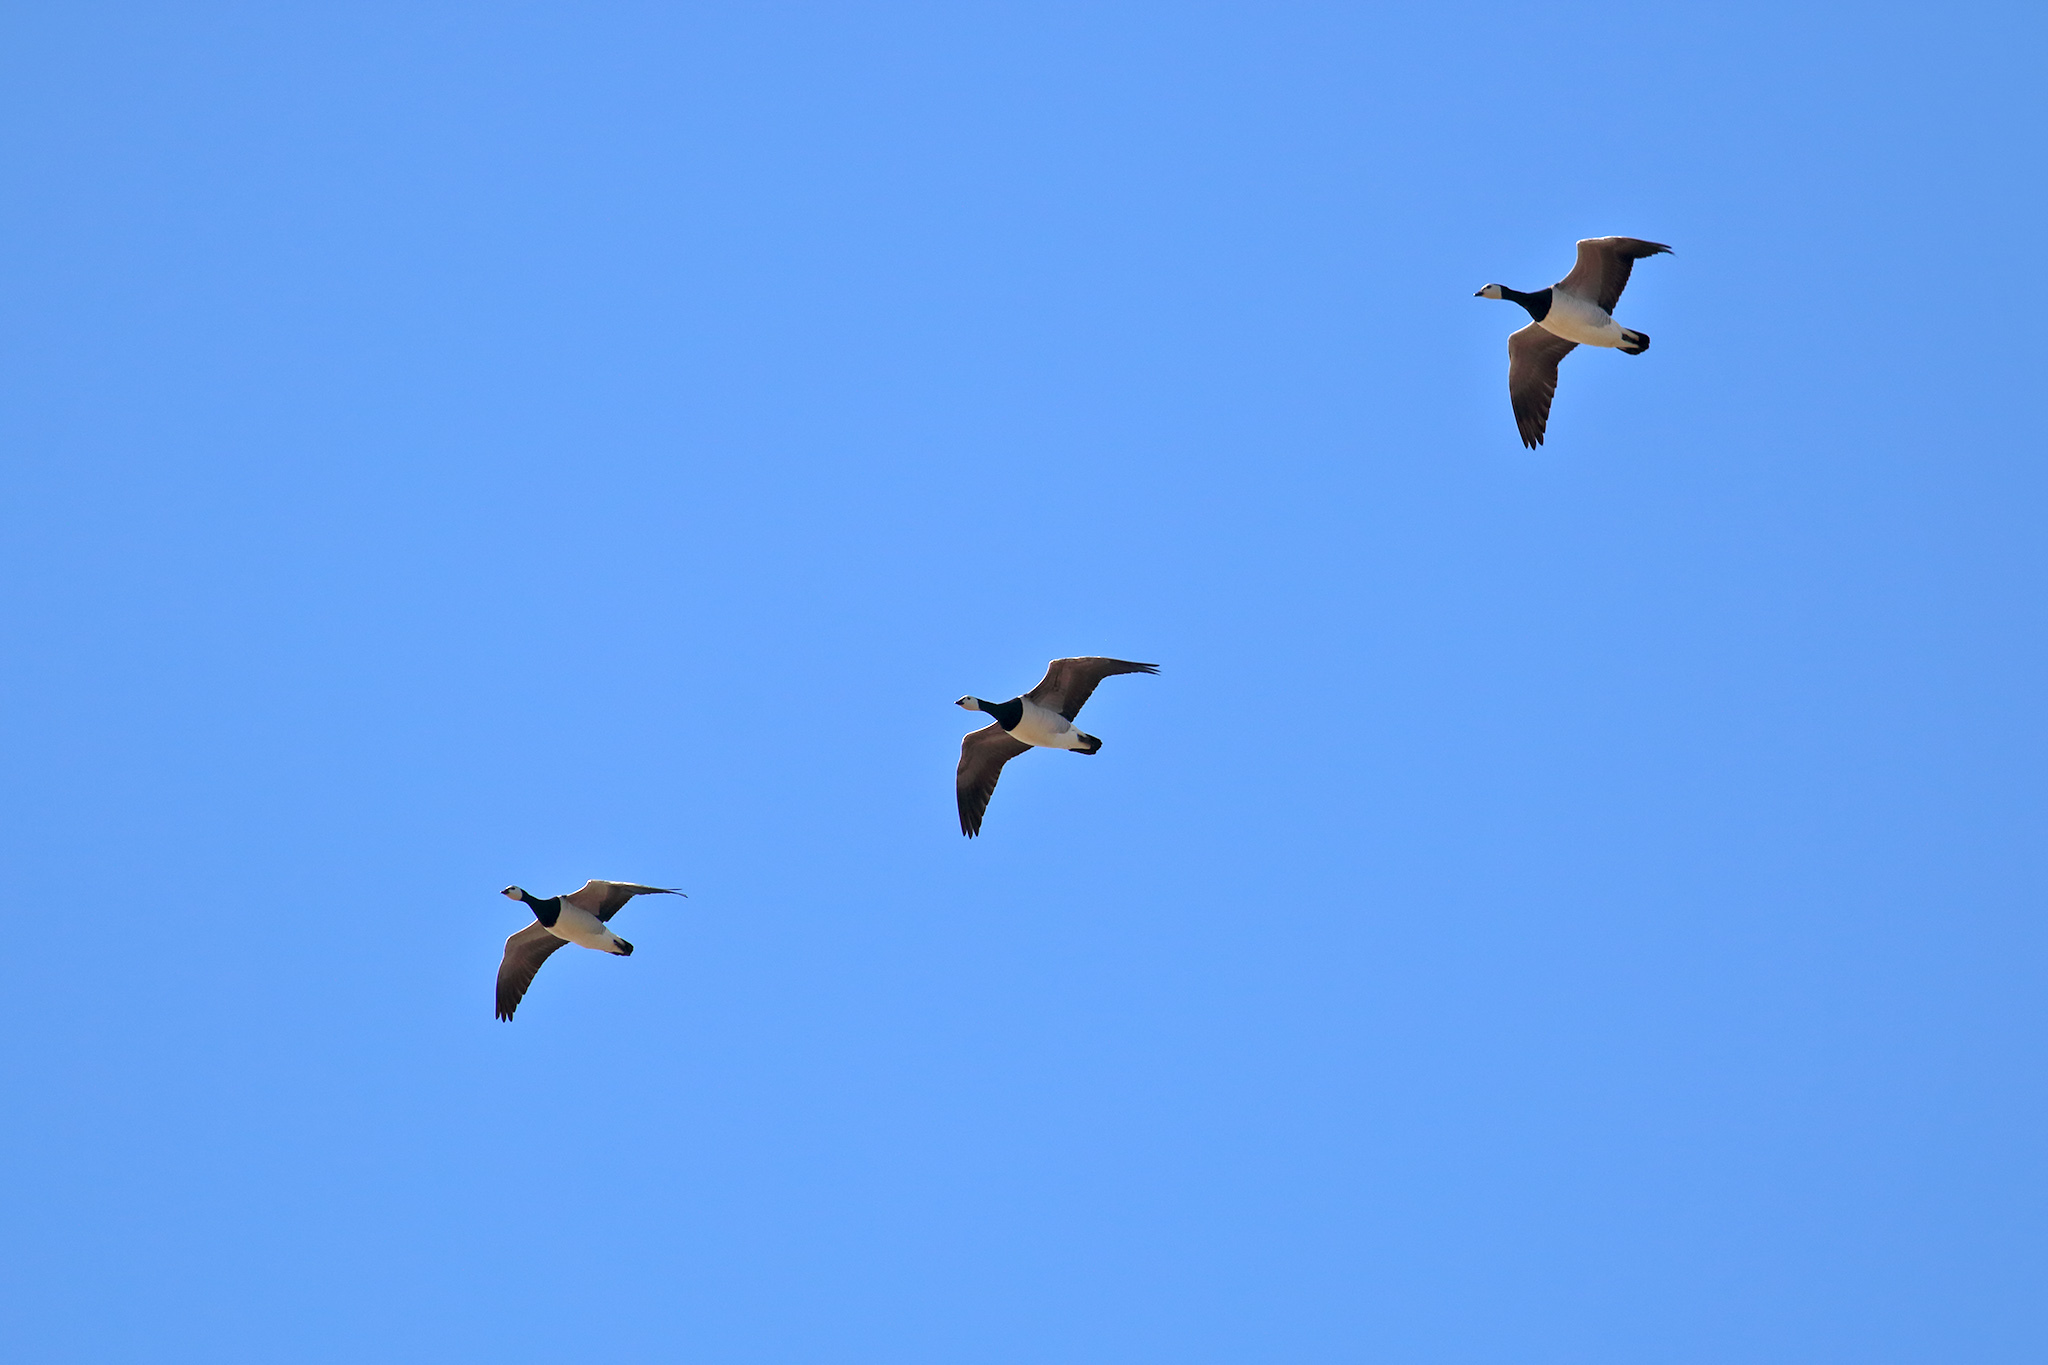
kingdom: Animalia
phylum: Chordata
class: Aves
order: Anseriformes
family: Anatidae
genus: Branta
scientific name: Branta leucopsis
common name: Barnacle goose
